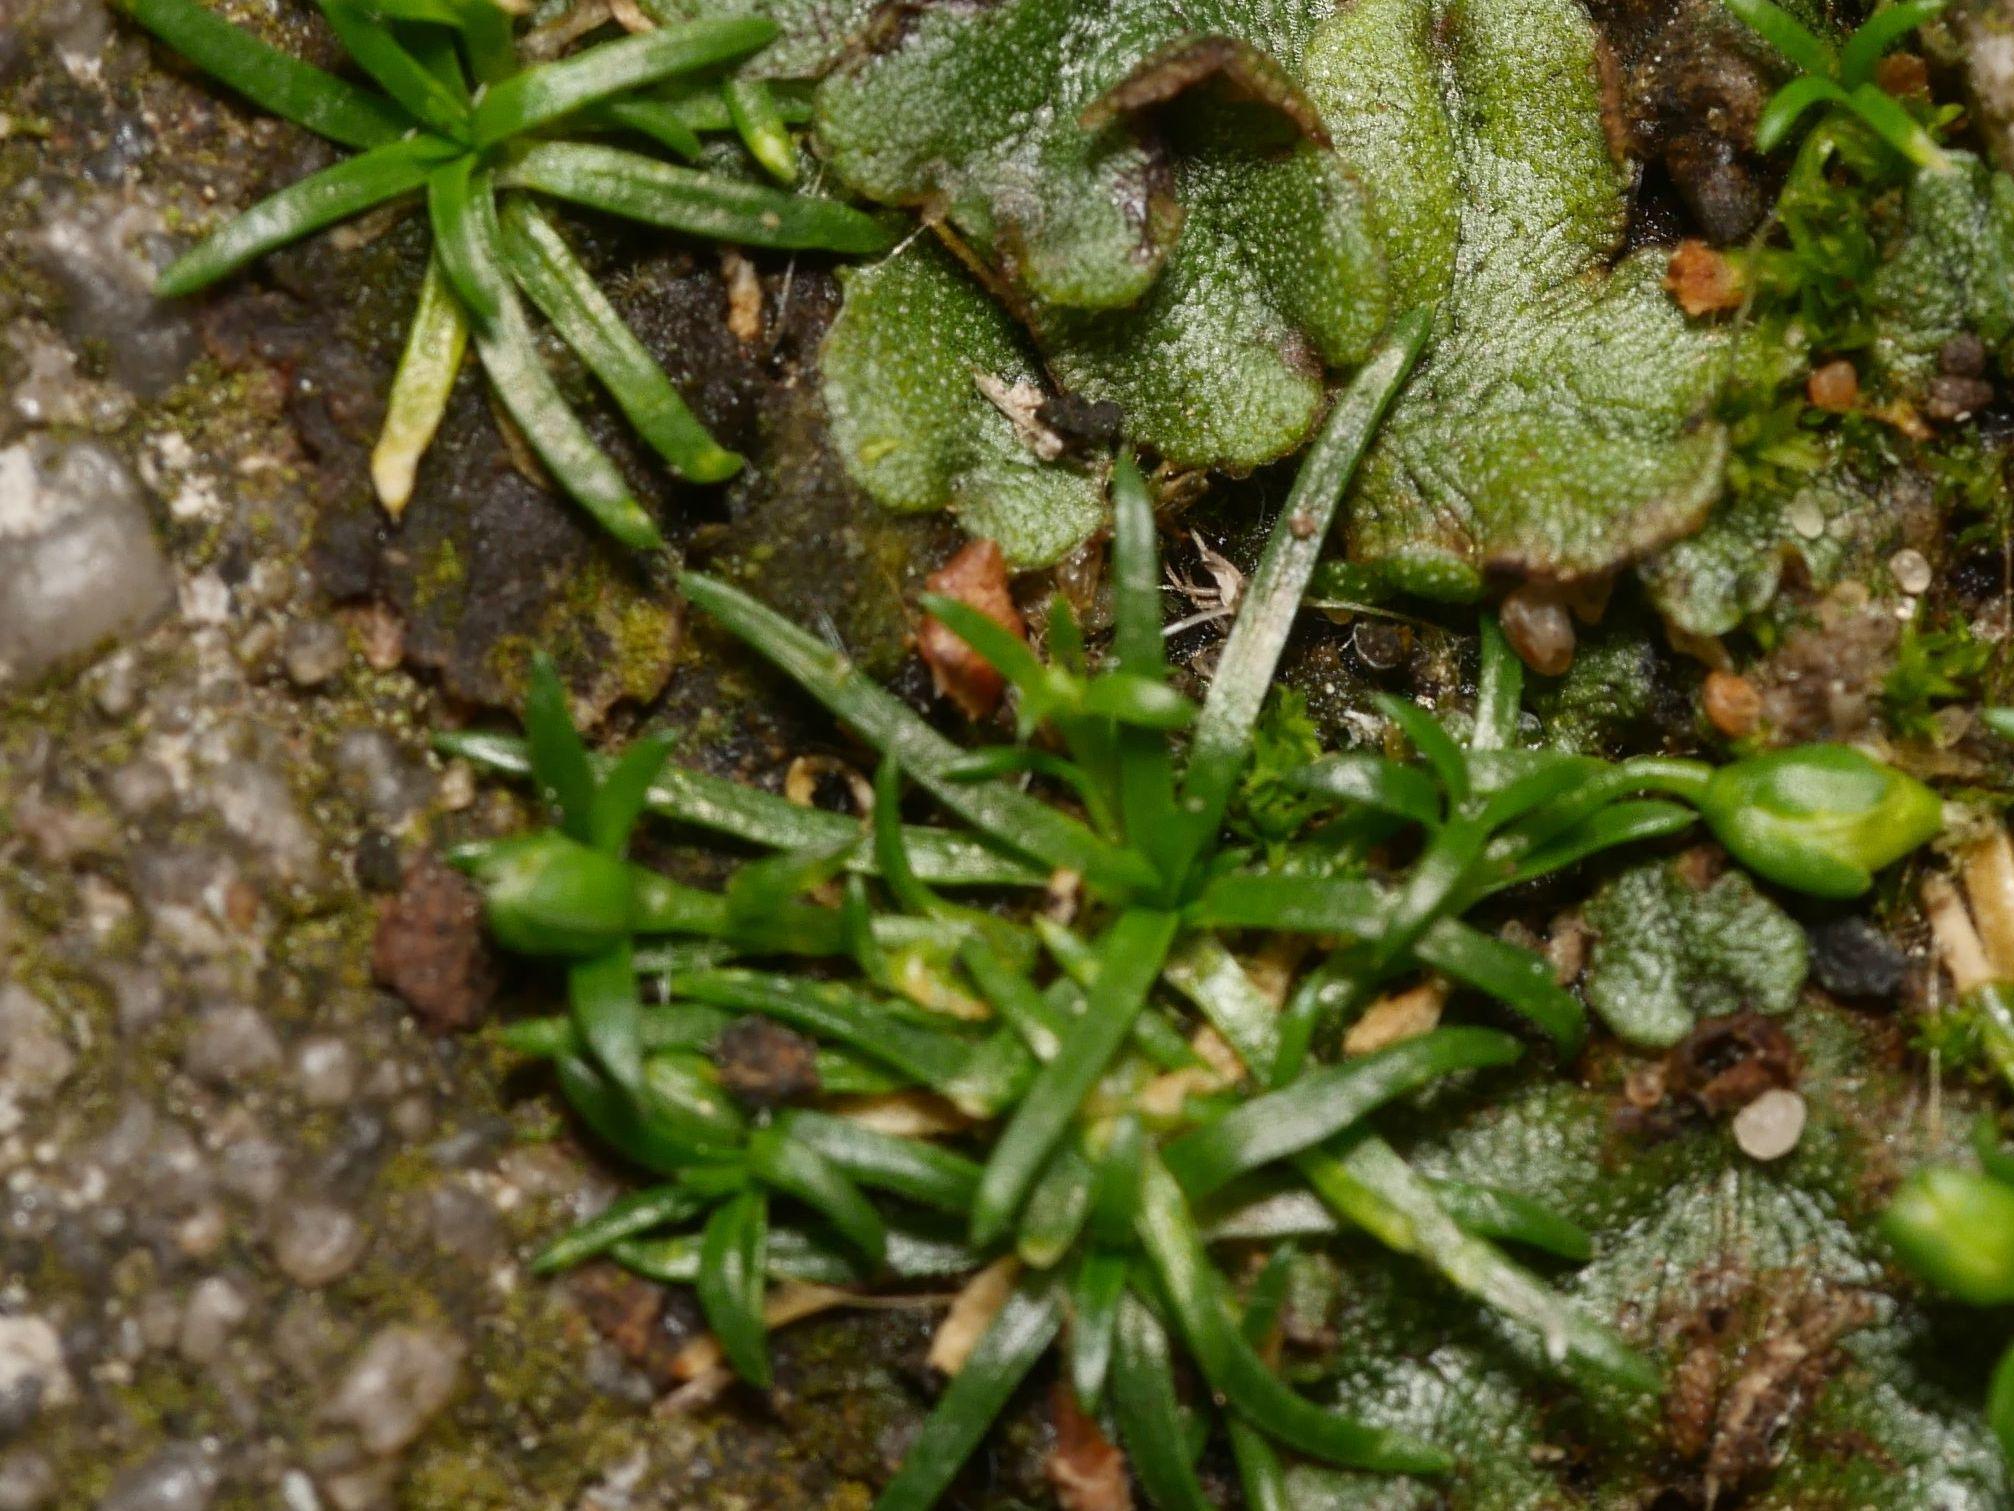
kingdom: Plantae
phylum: Tracheophyta
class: Magnoliopsida
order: Caryophyllales
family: Caryophyllaceae
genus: Sagina
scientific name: Sagina procumbens
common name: Procumbent pearlwort
